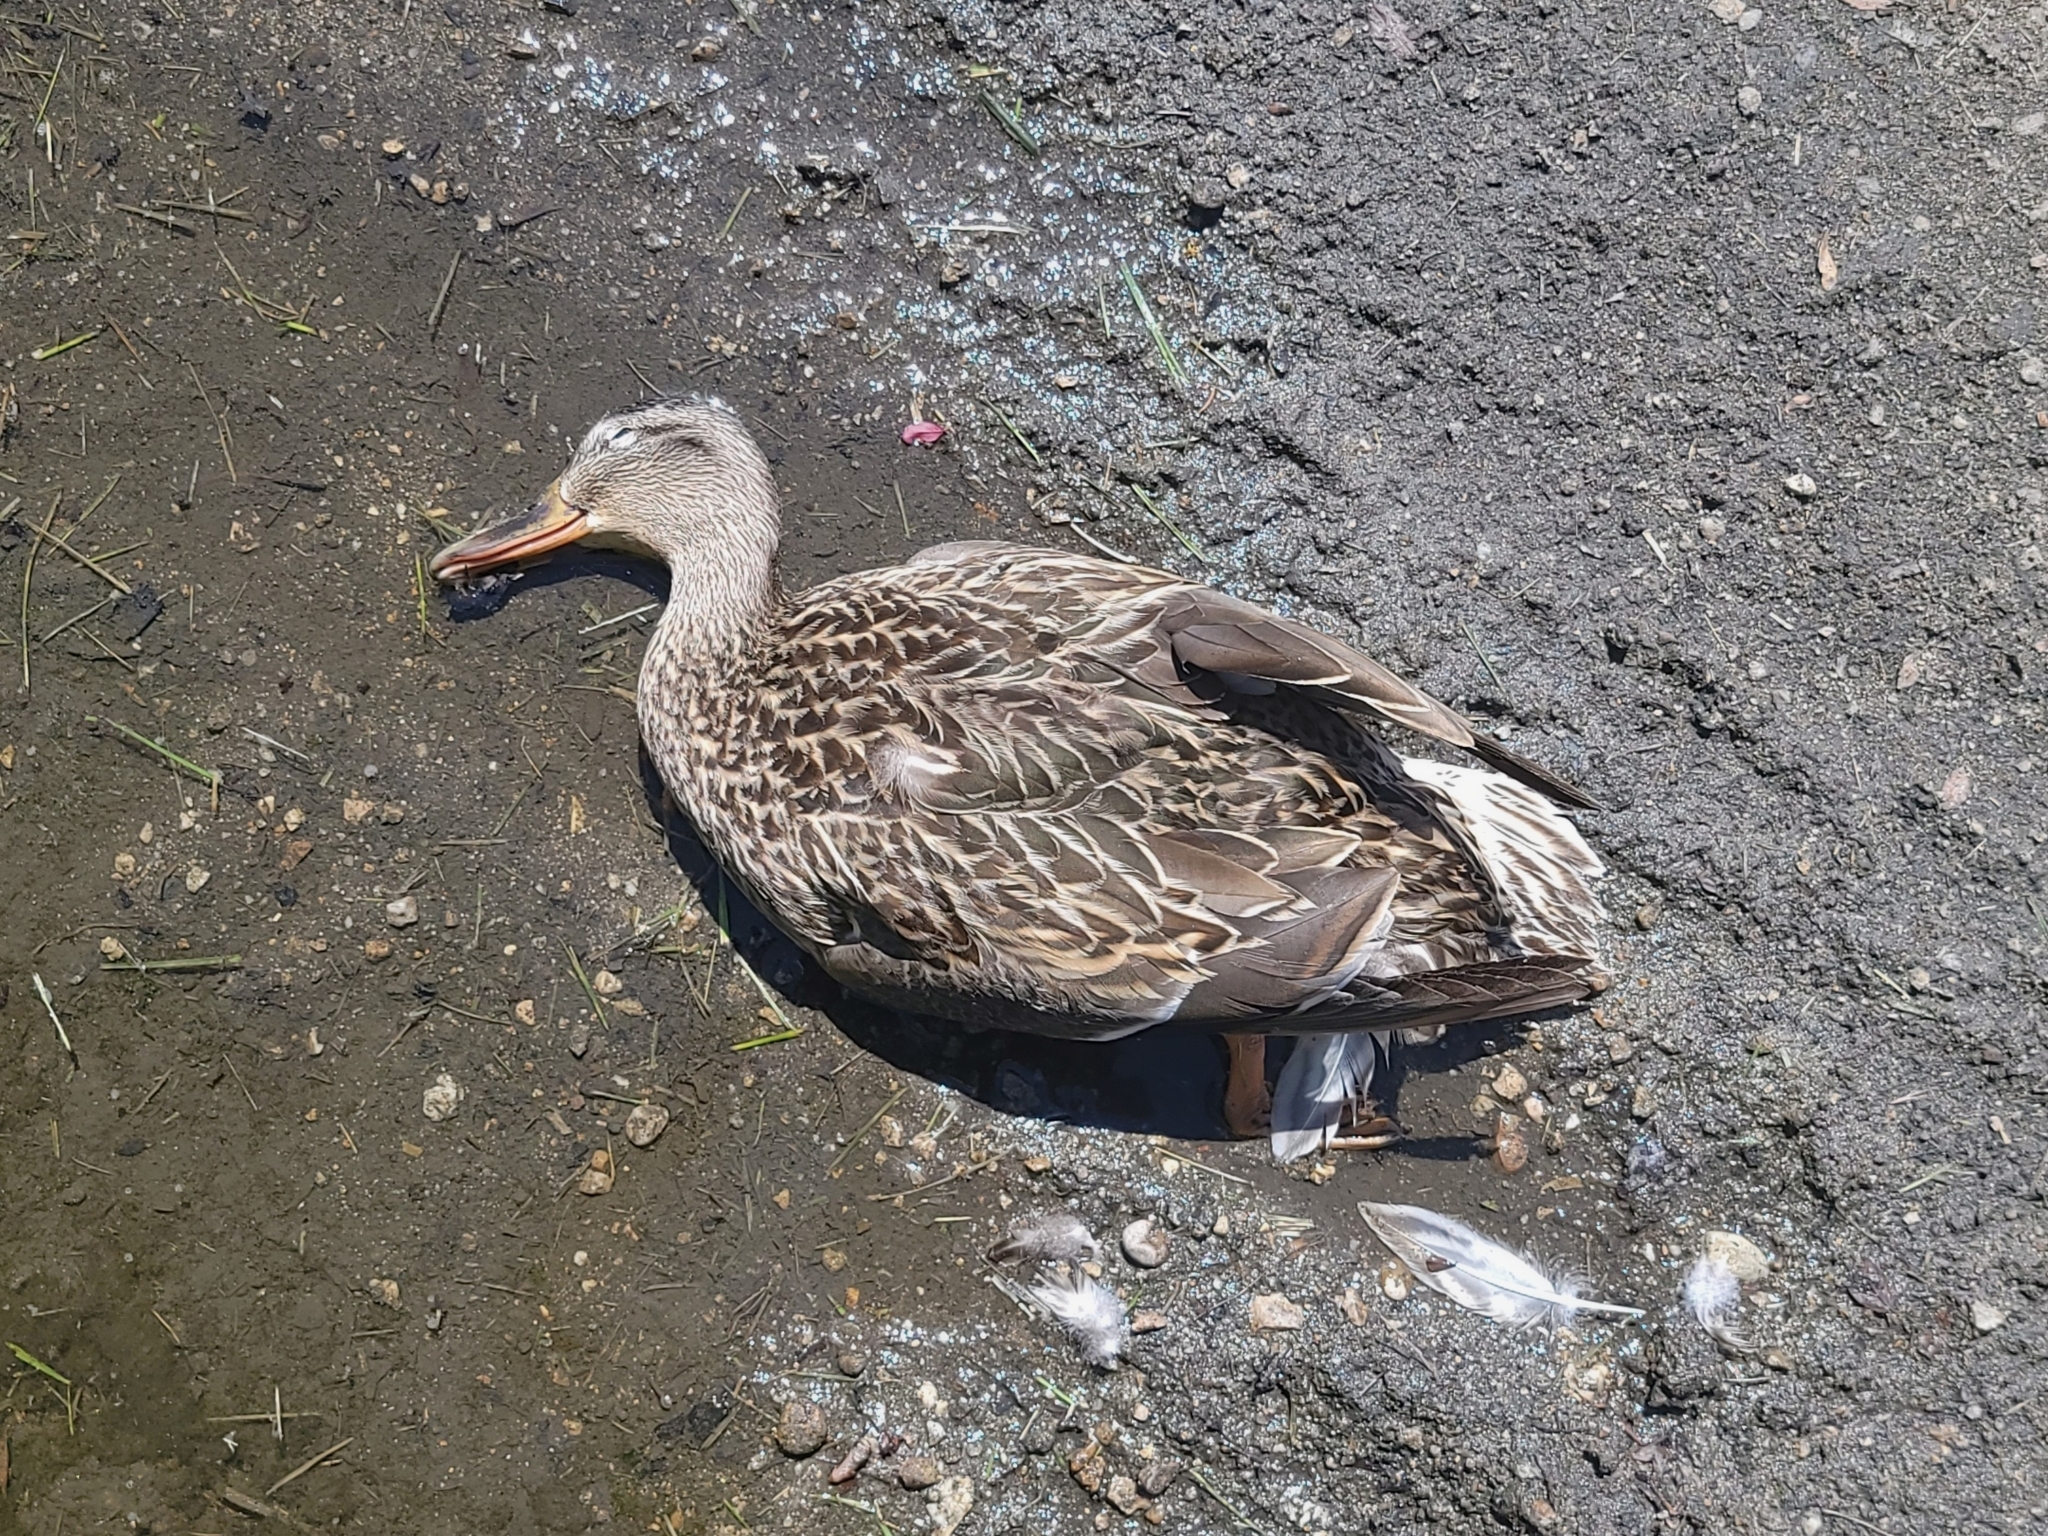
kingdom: Animalia
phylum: Chordata
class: Aves
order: Anseriformes
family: Anatidae
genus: Anas
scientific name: Anas platyrhynchos
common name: Mallard
